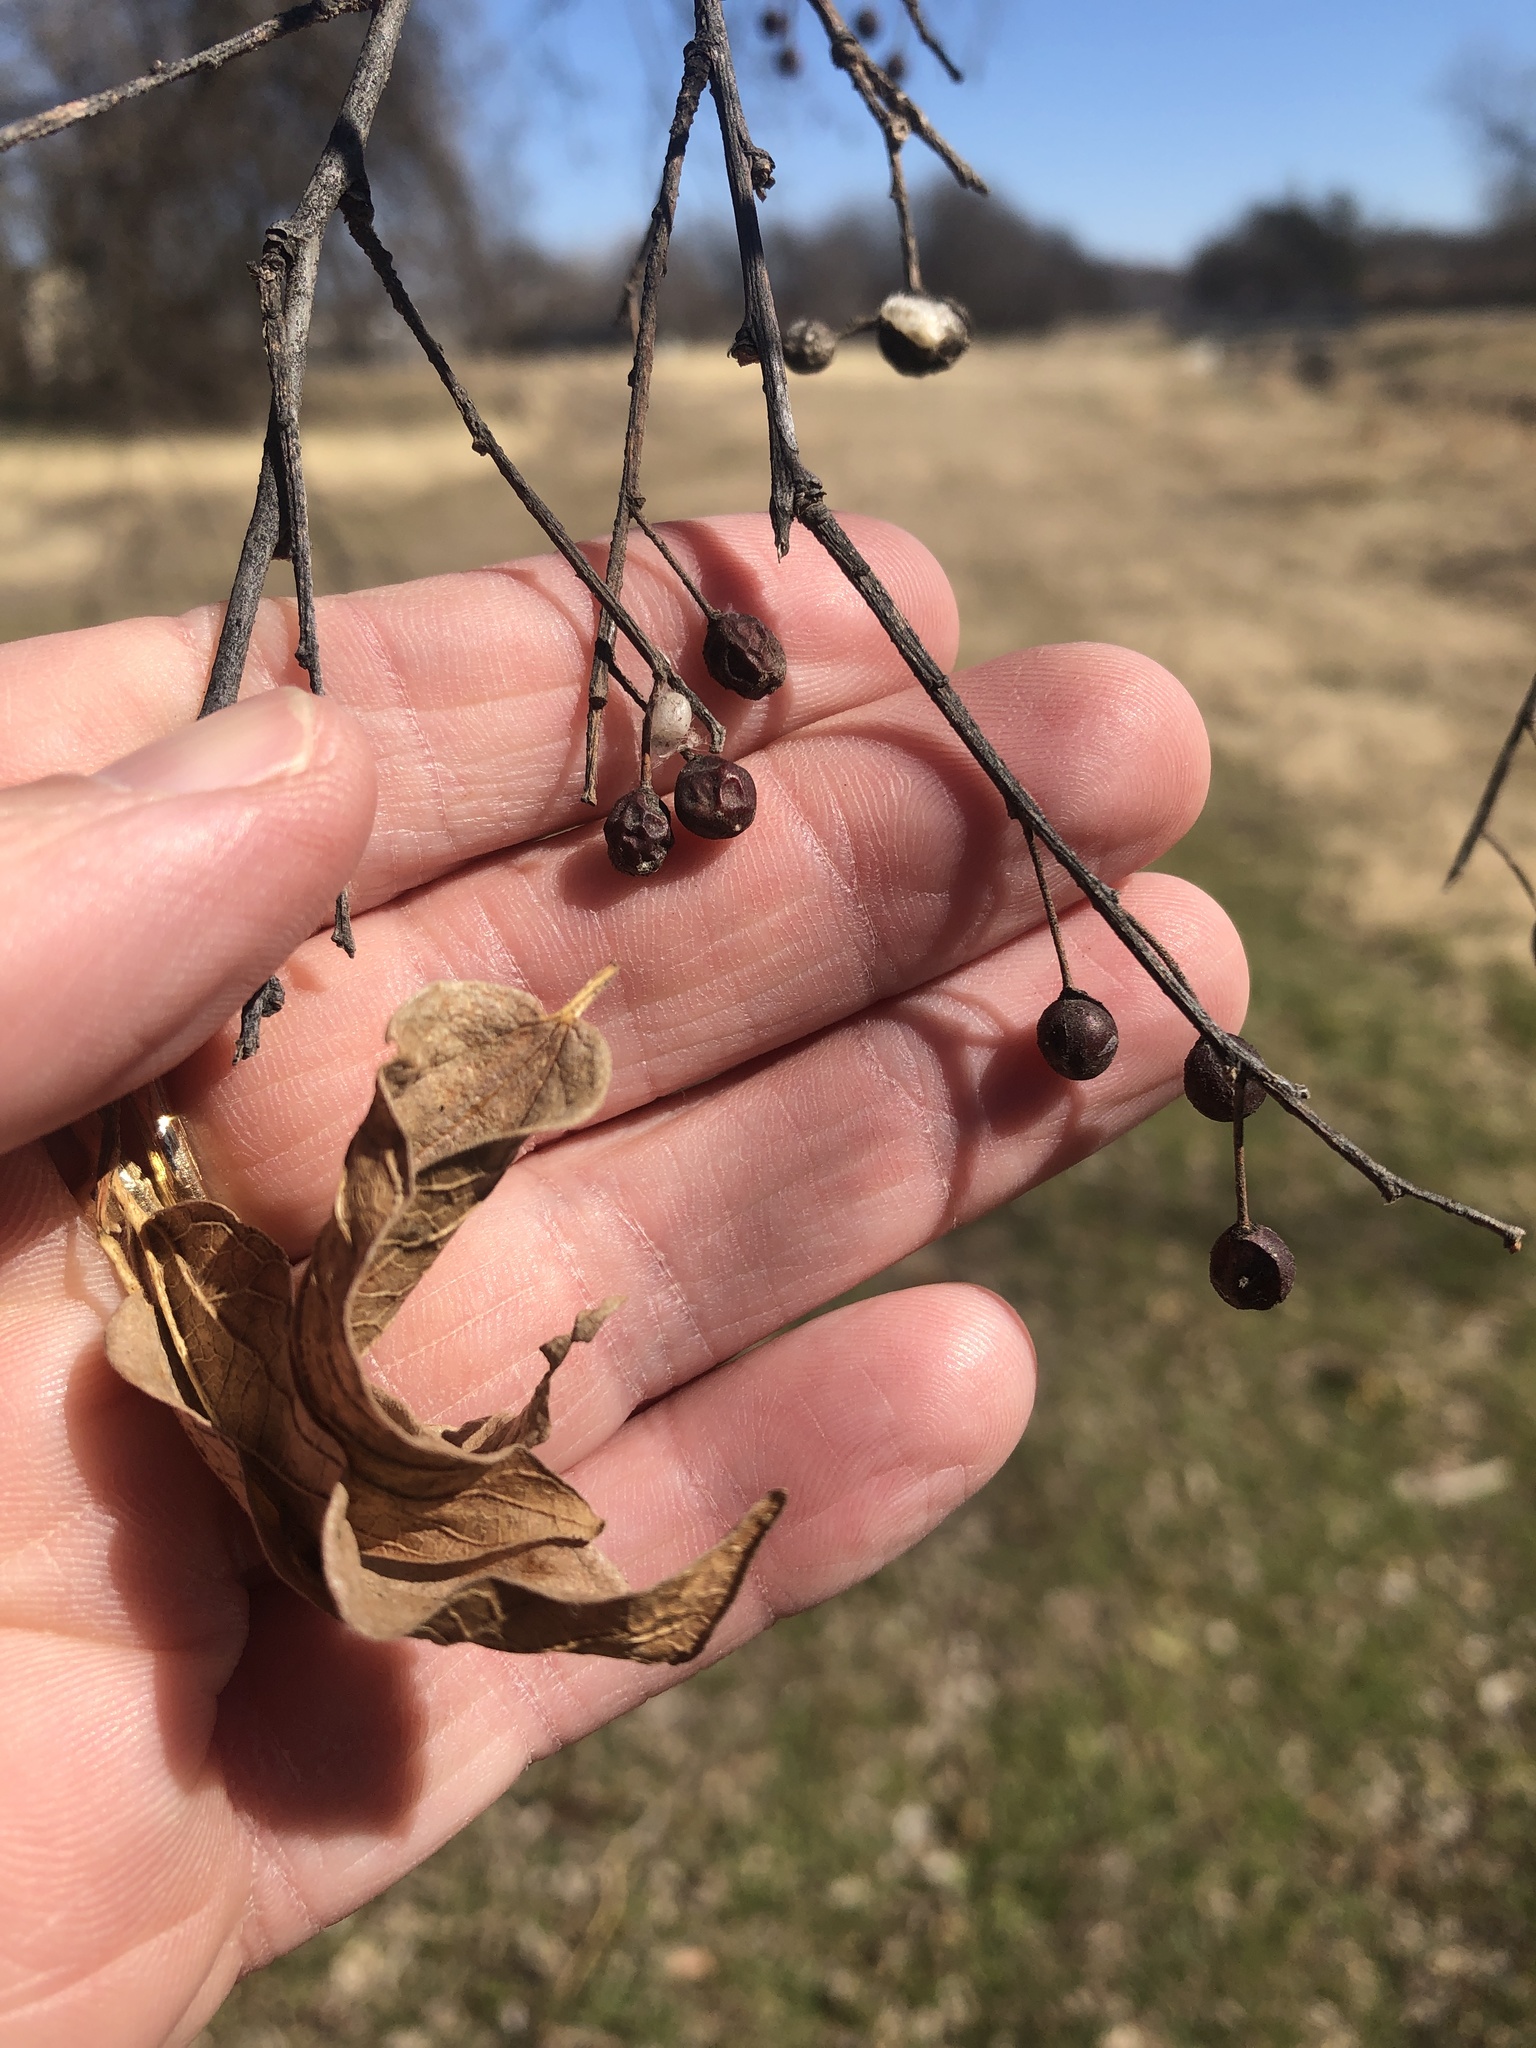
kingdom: Plantae
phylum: Tracheophyta
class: Magnoliopsida
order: Rosales
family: Cannabaceae
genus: Celtis
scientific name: Celtis laevigata
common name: Sugarberry
